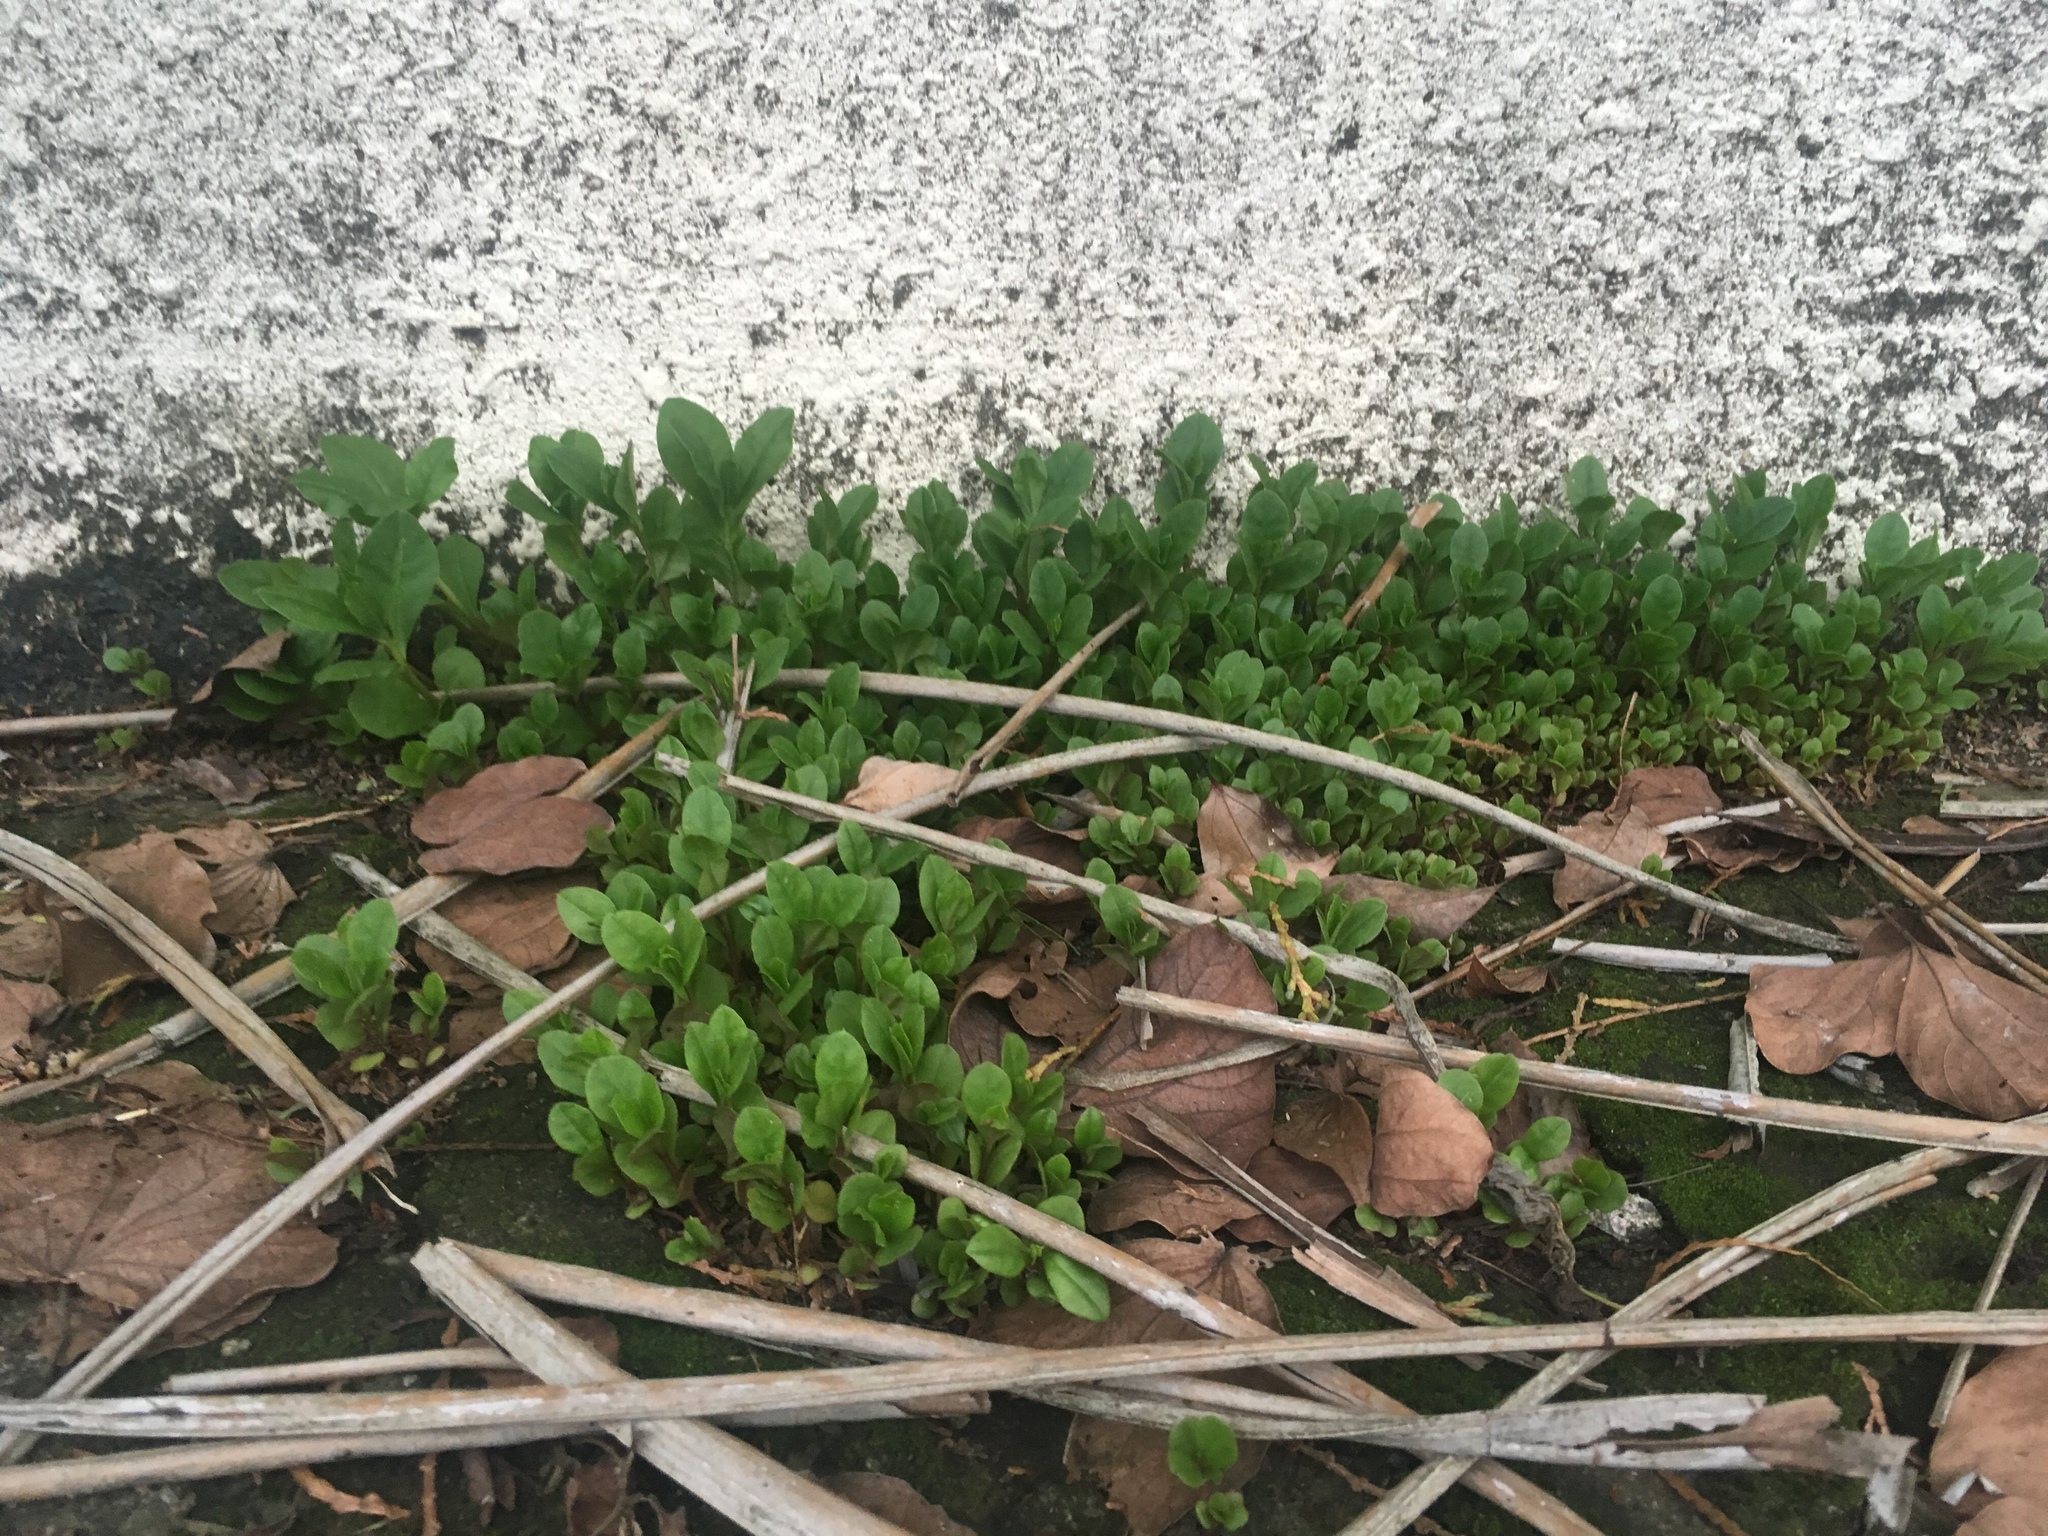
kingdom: Plantae
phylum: Tracheophyta
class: Magnoliopsida
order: Caryophyllales
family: Talinaceae
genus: Talinum
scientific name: Talinum paniculatum
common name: Jewels of opar
